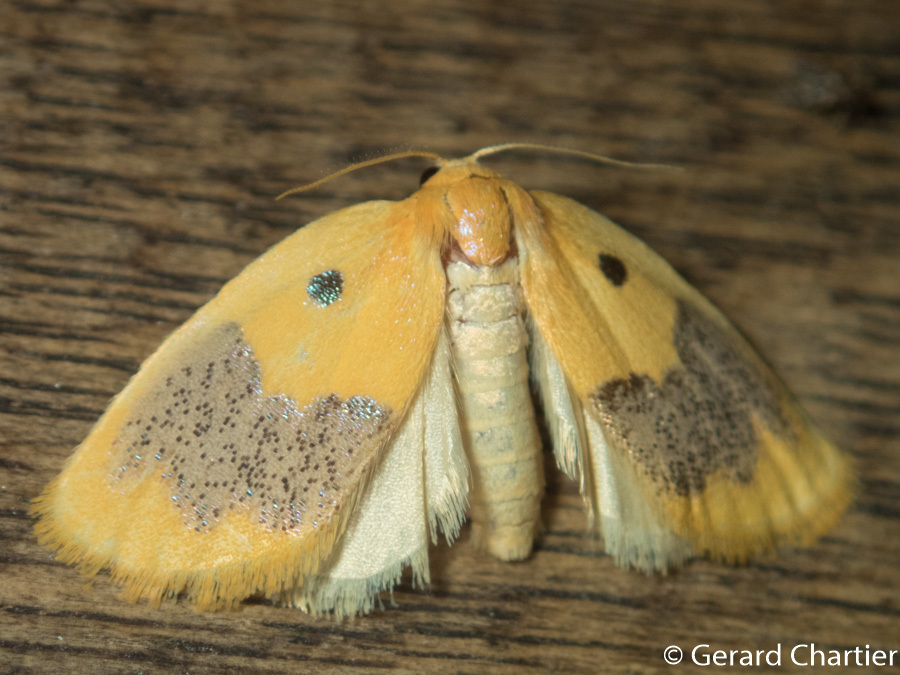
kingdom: Animalia
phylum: Arthropoda
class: Insecta
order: Lepidoptera
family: Erebidae
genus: Cyclomilta
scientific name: Cyclomilta cambodiaca
